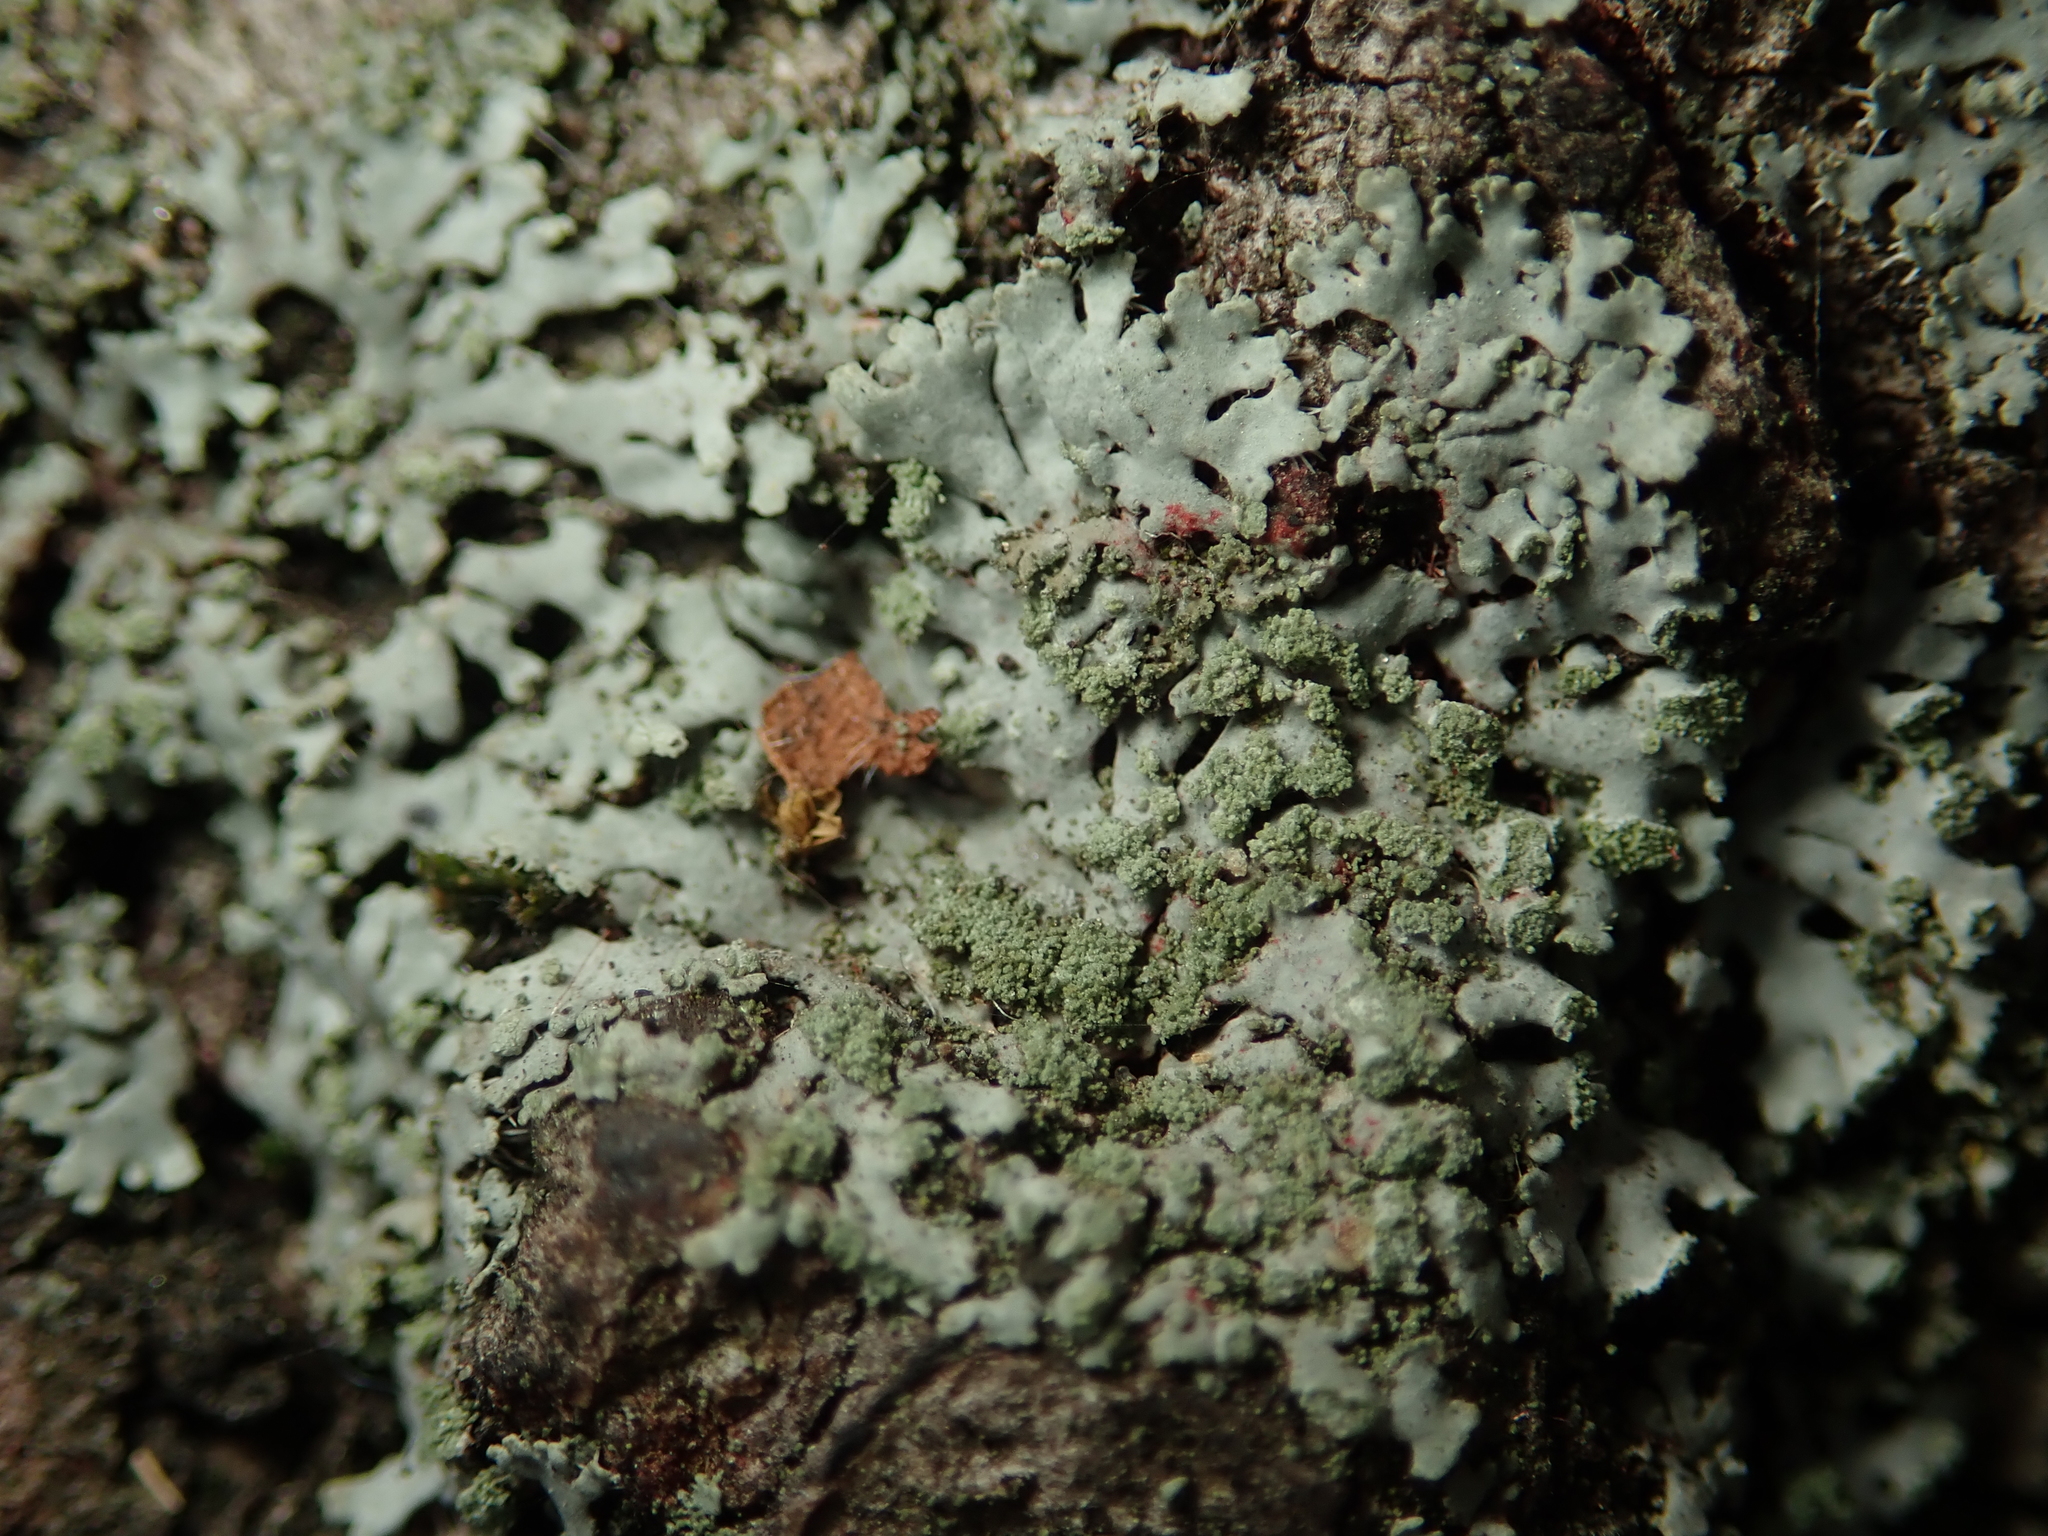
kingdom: Fungi
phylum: Ascomycota
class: Lecanoromycetes
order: Caliciales
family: Physciaceae
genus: Phaeophyscia
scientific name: Phaeophyscia orbicularis
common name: Mealy shadow lichen
